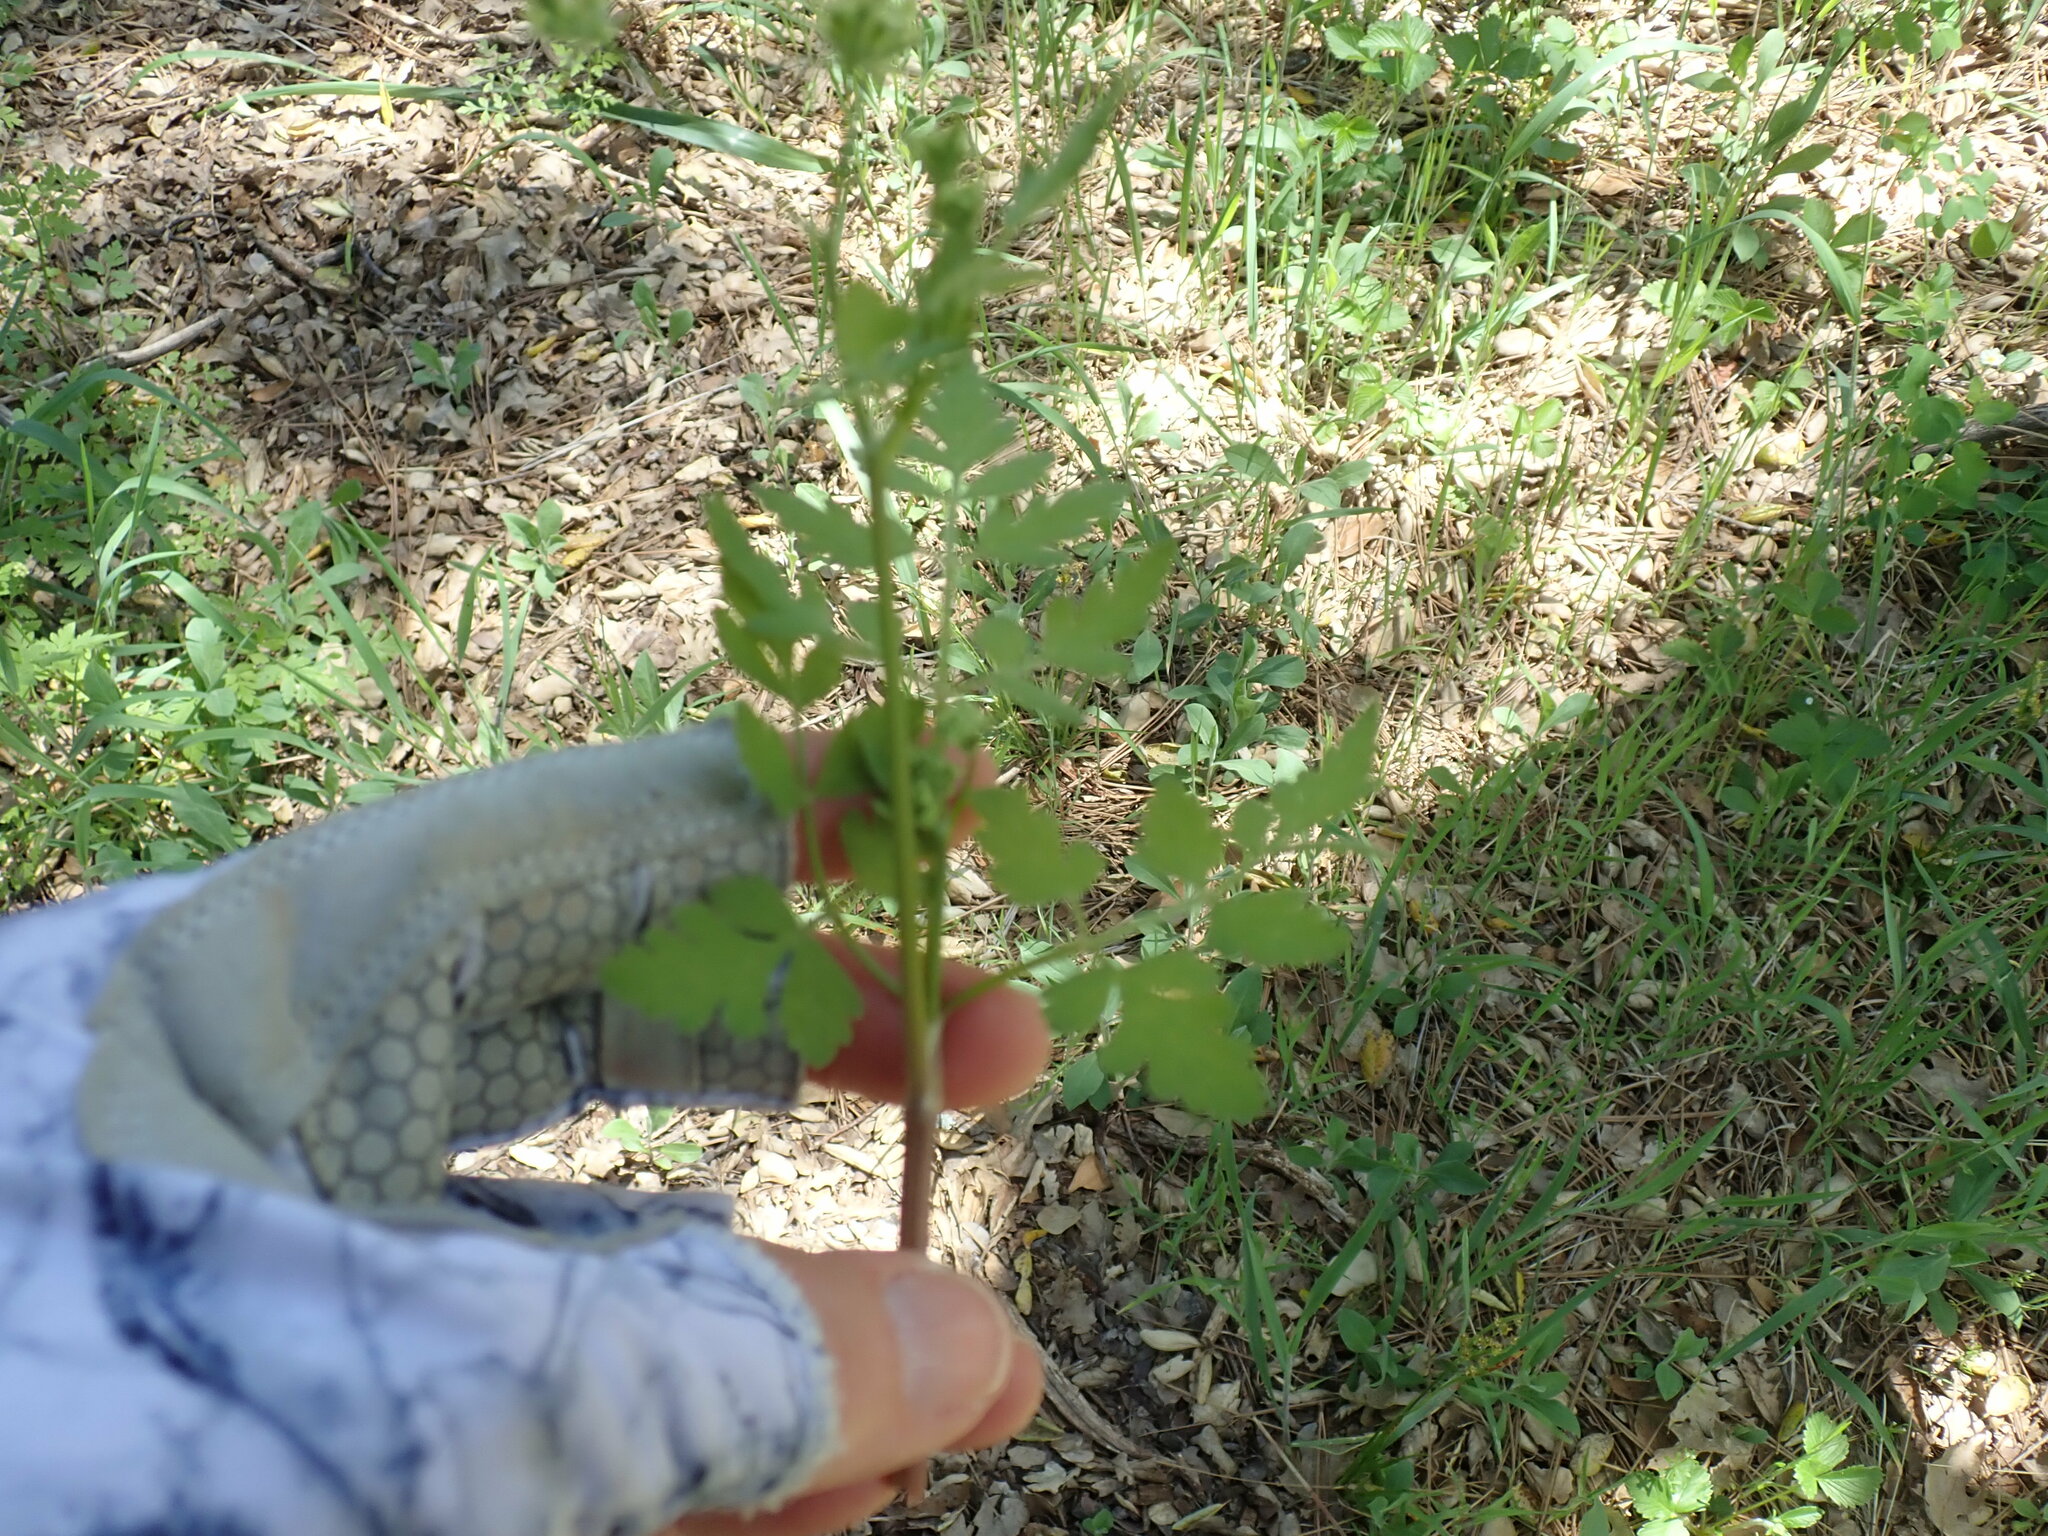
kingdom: Plantae
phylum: Tracheophyta
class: Magnoliopsida
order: Apiales
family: Apiaceae
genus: Osmorhiza
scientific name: Osmorhiza brachypoda
